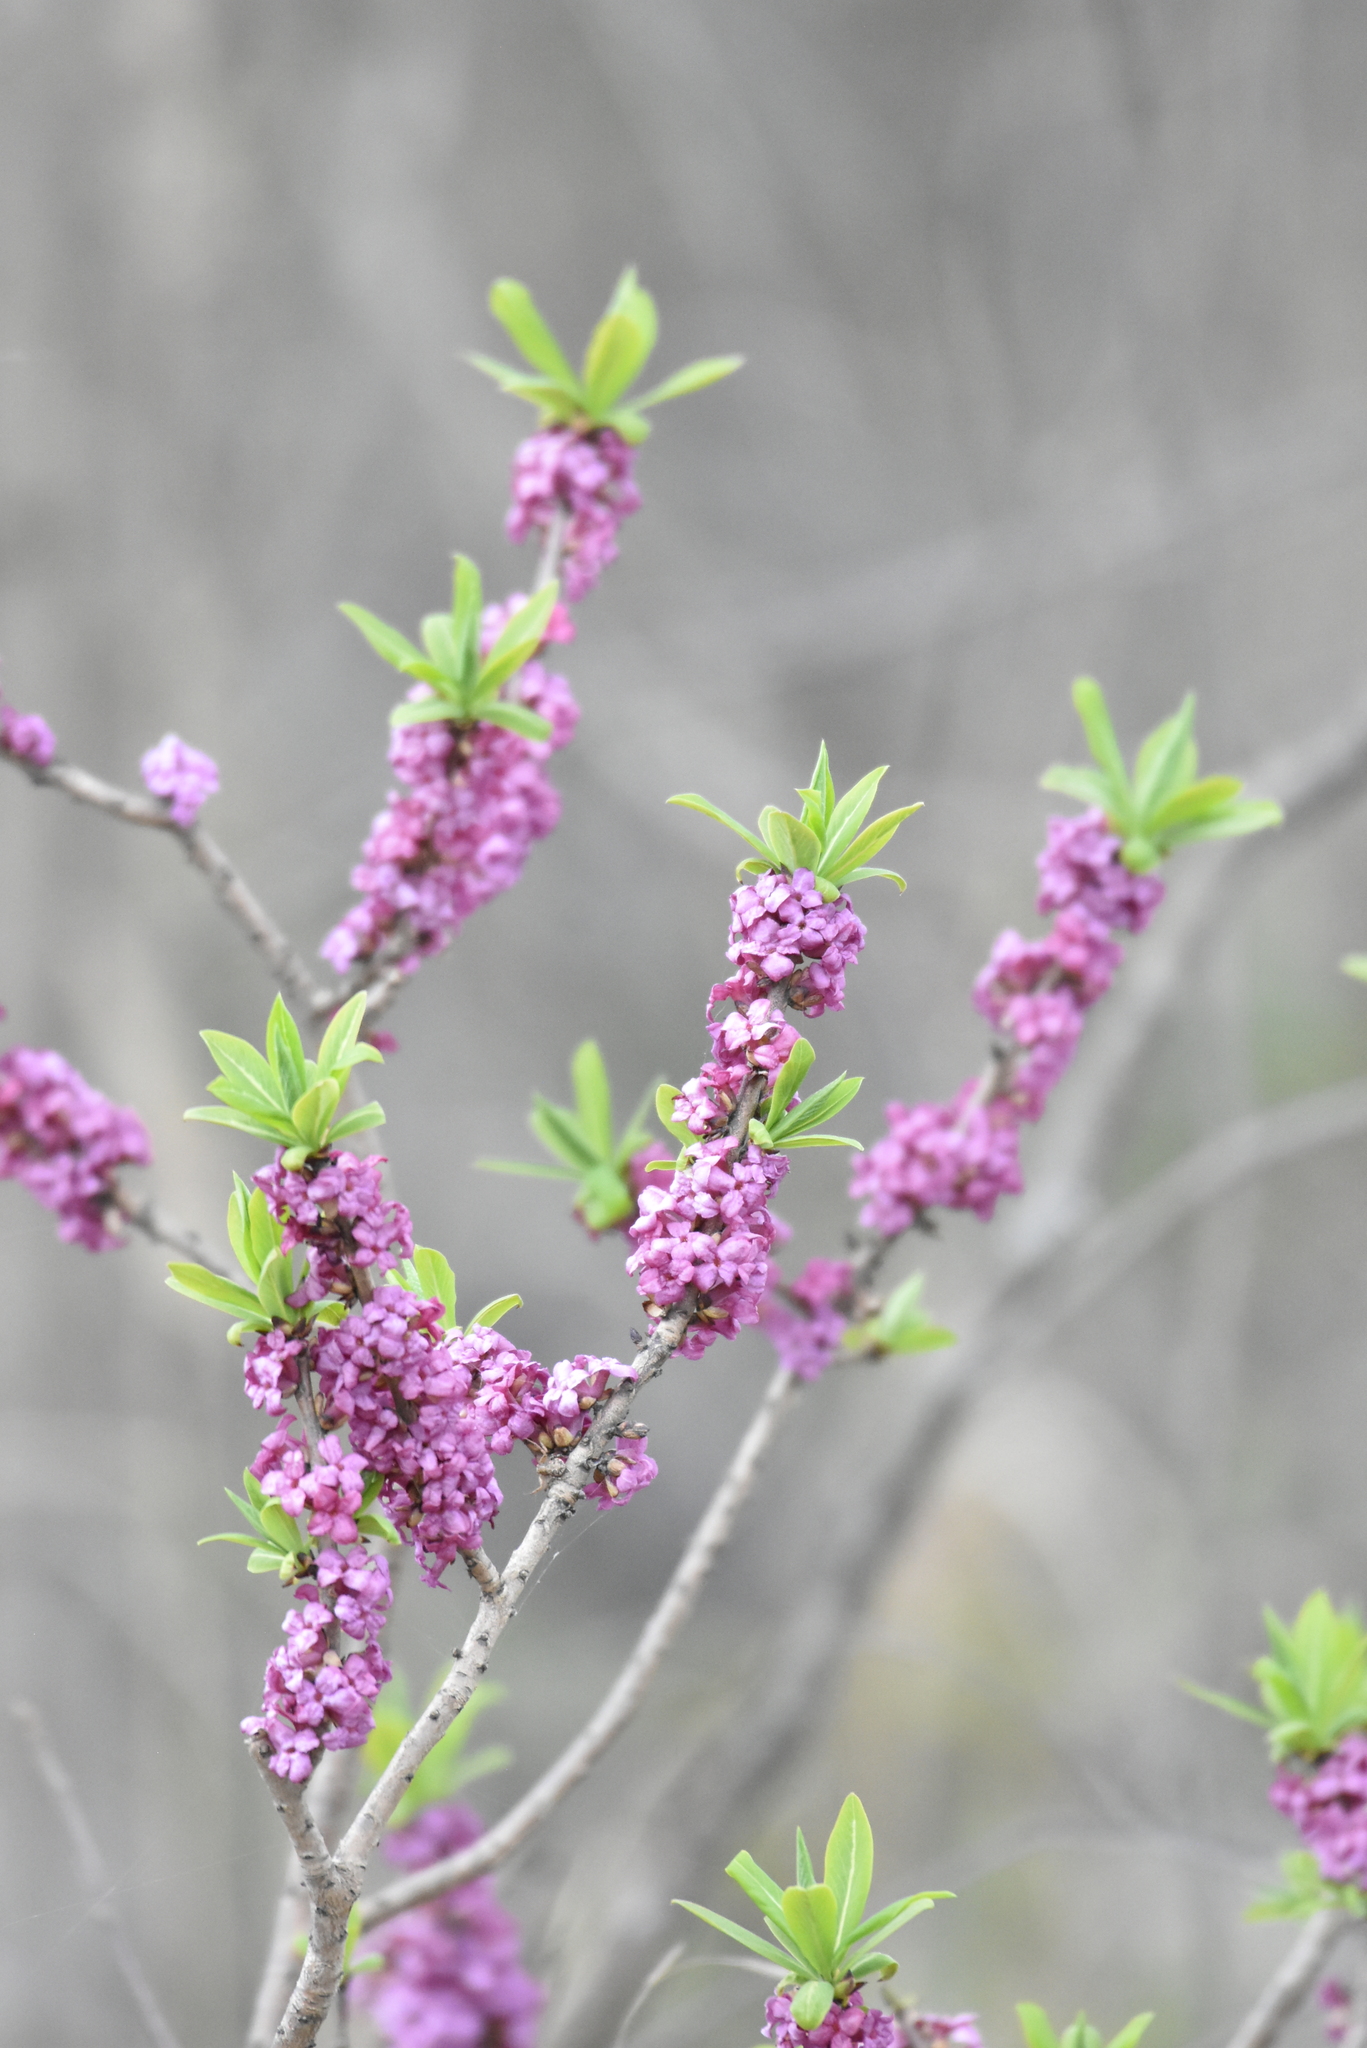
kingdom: Plantae
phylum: Tracheophyta
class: Magnoliopsida
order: Malvales
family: Thymelaeaceae
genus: Daphne
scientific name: Daphne mezereum
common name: Mezereon
